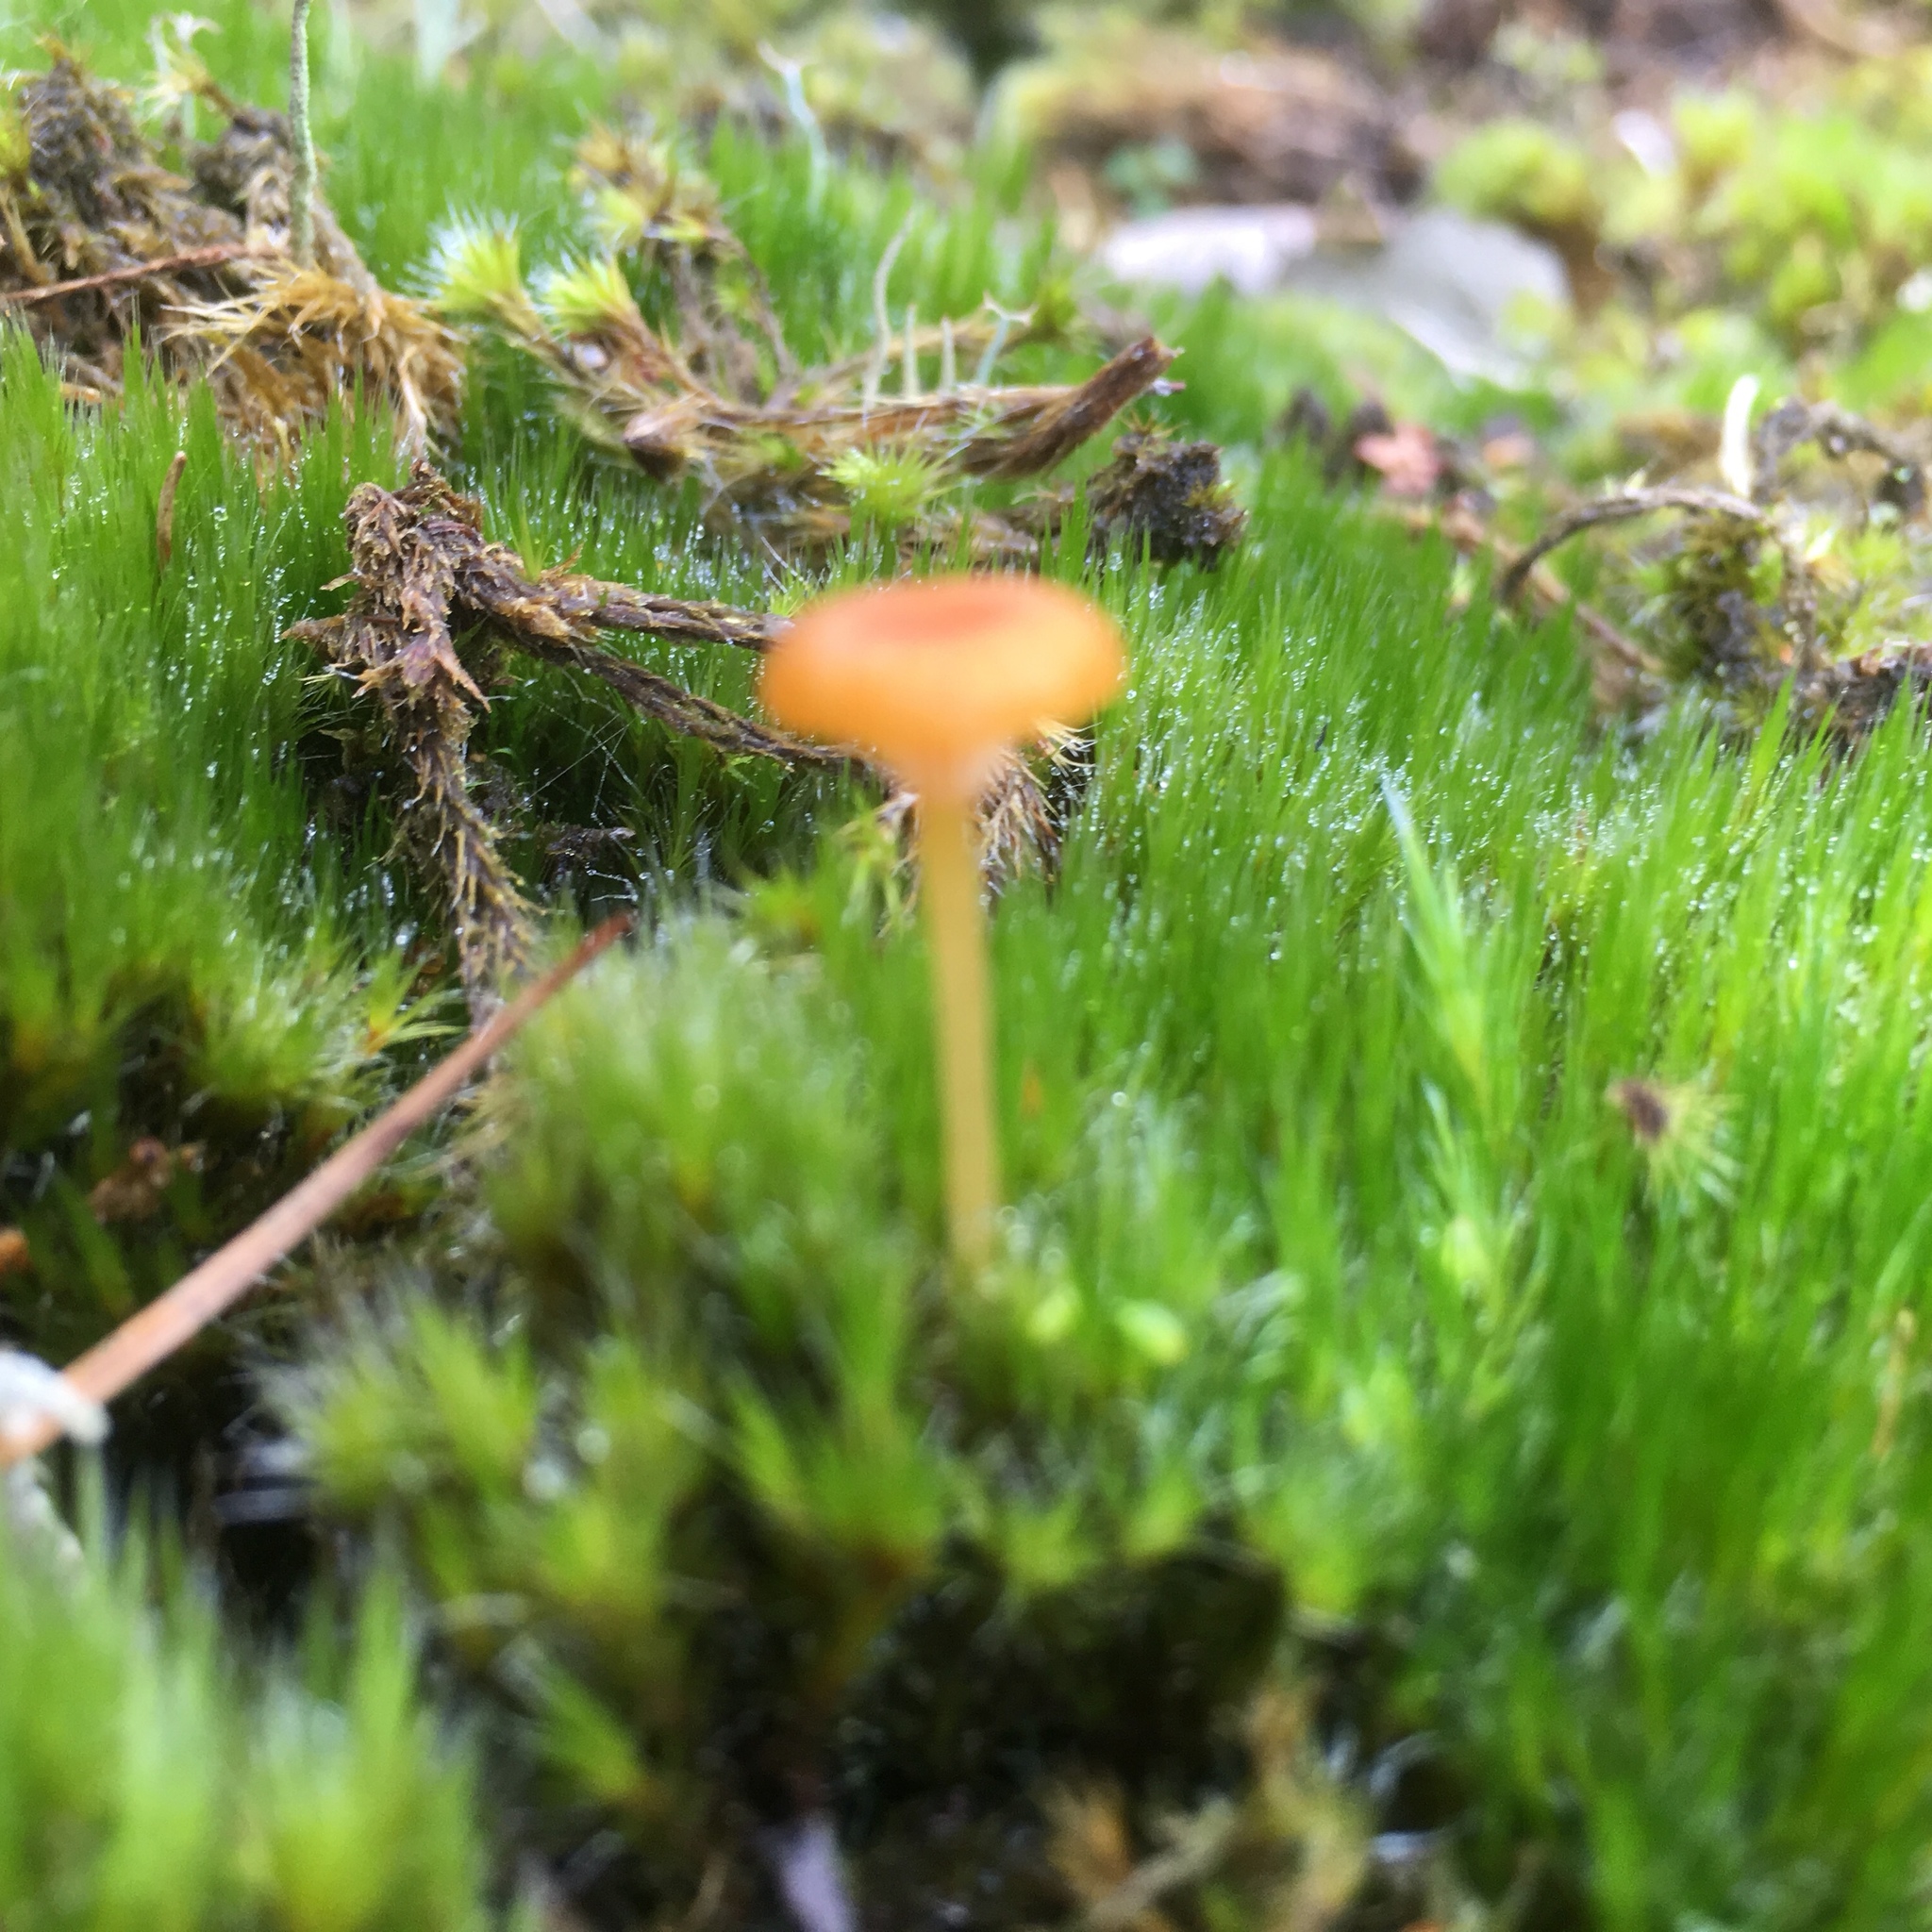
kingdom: Fungi
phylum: Basidiomycota
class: Agaricomycetes
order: Hymenochaetales
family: Rickenellaceae
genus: Rickenella
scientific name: Rickenella fibula
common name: Orange mosscap
